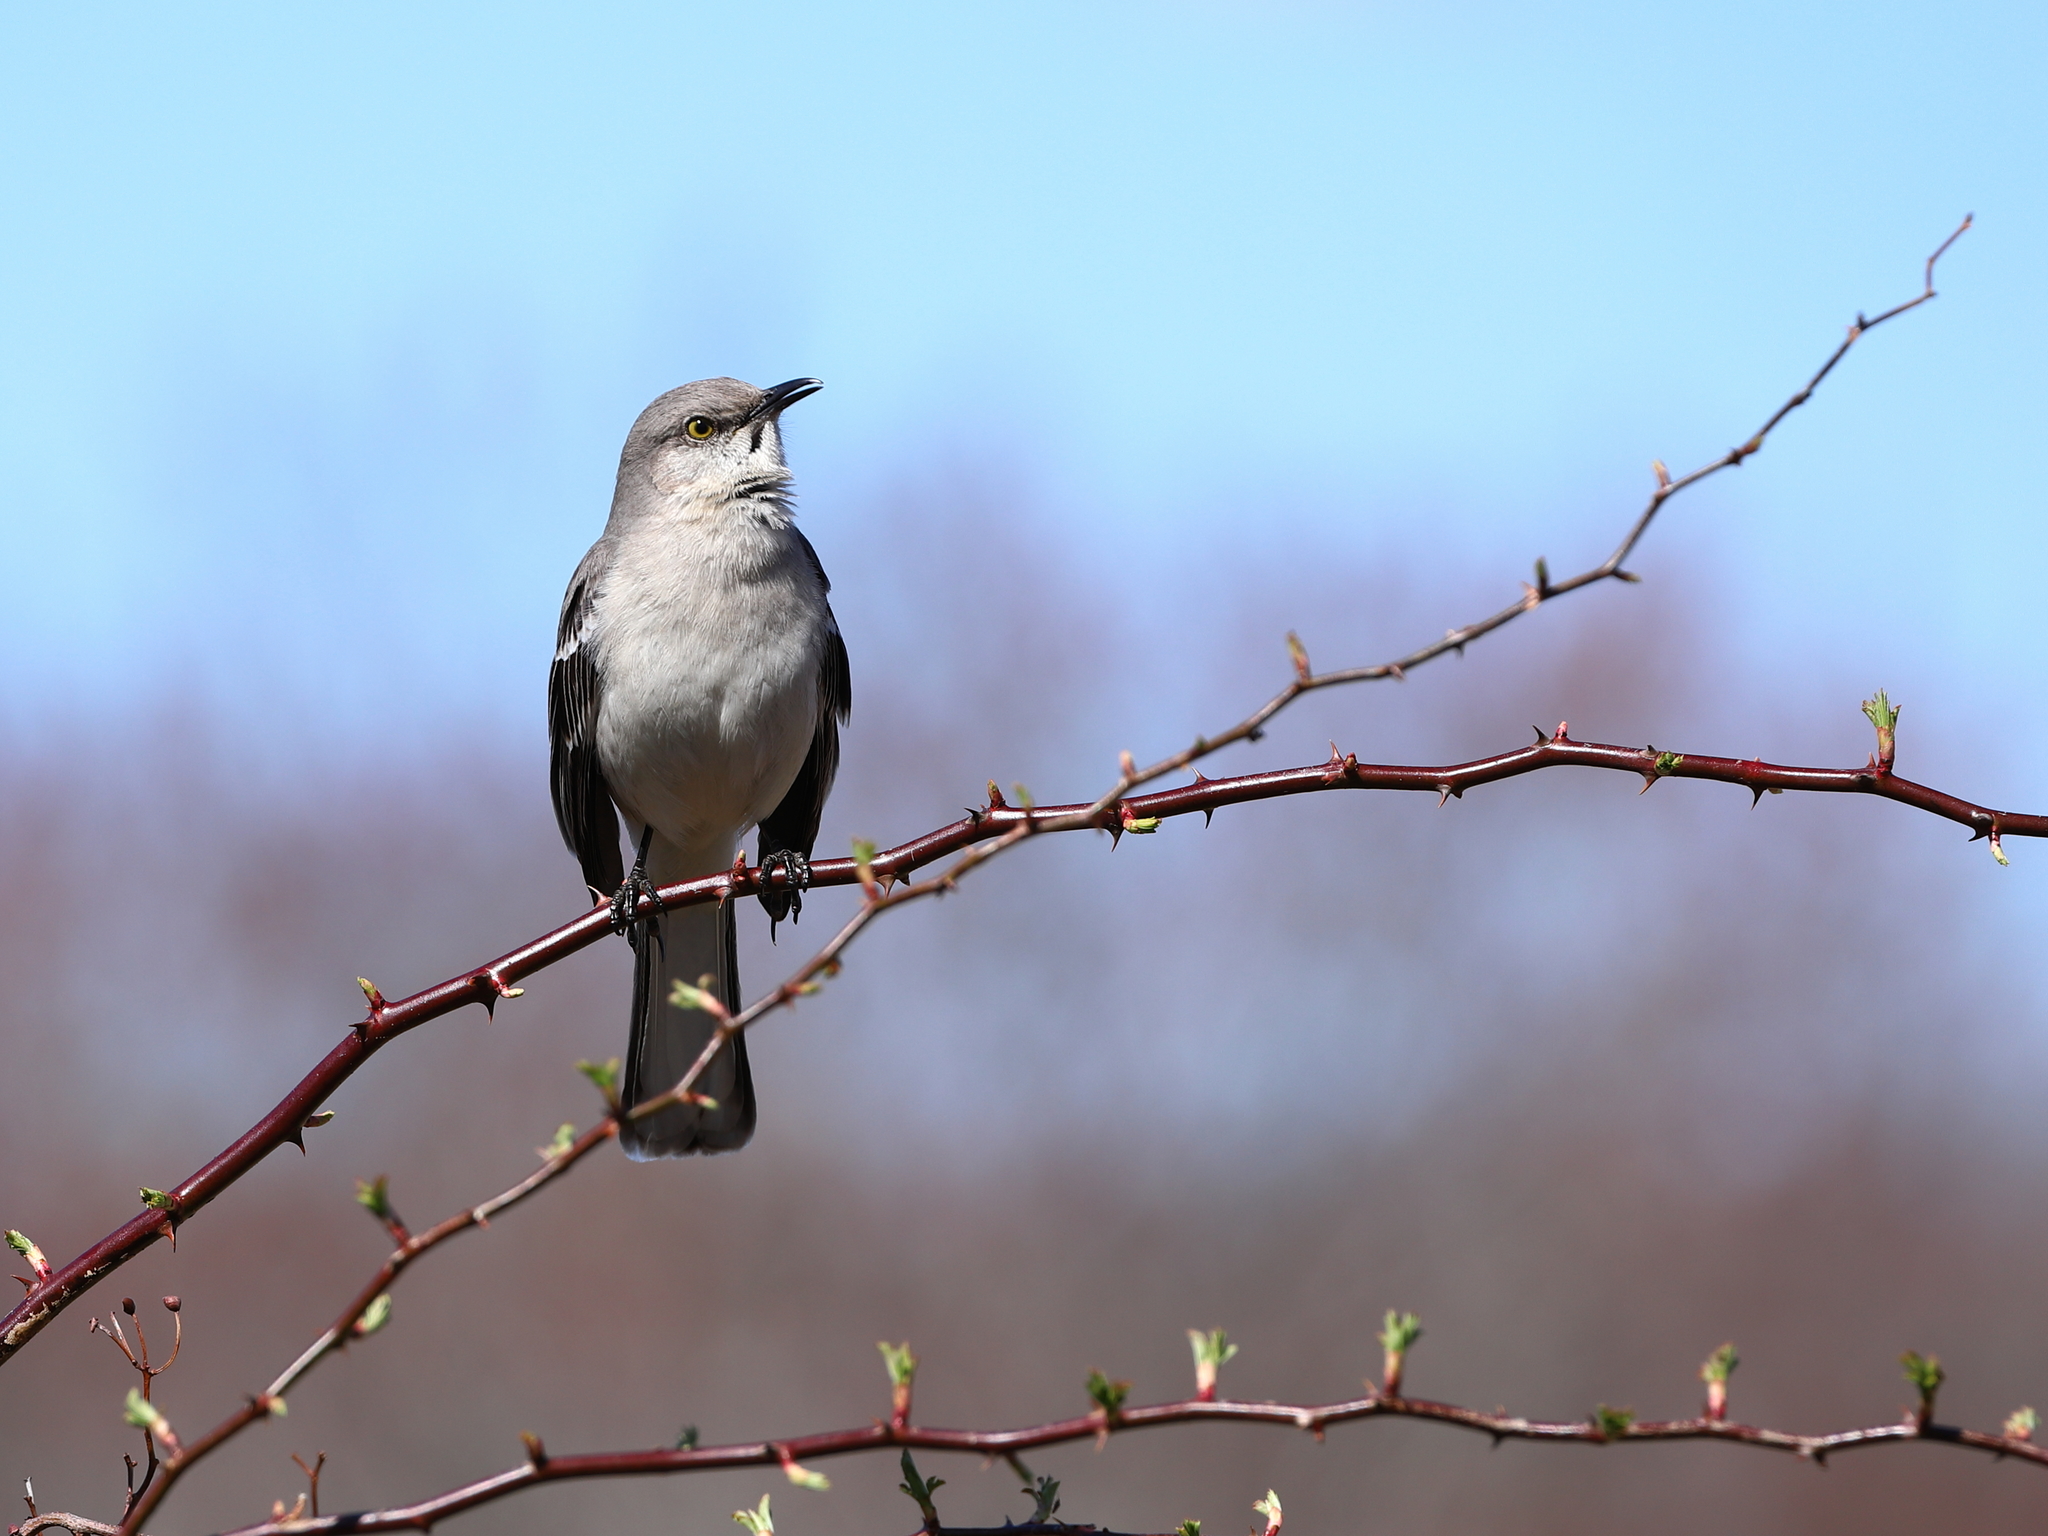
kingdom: Animalia
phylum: Chordata
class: Aves
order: Passeriformes
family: Mimidae
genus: Mimus
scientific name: Mimus polyglottos
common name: Northern mockingbird
